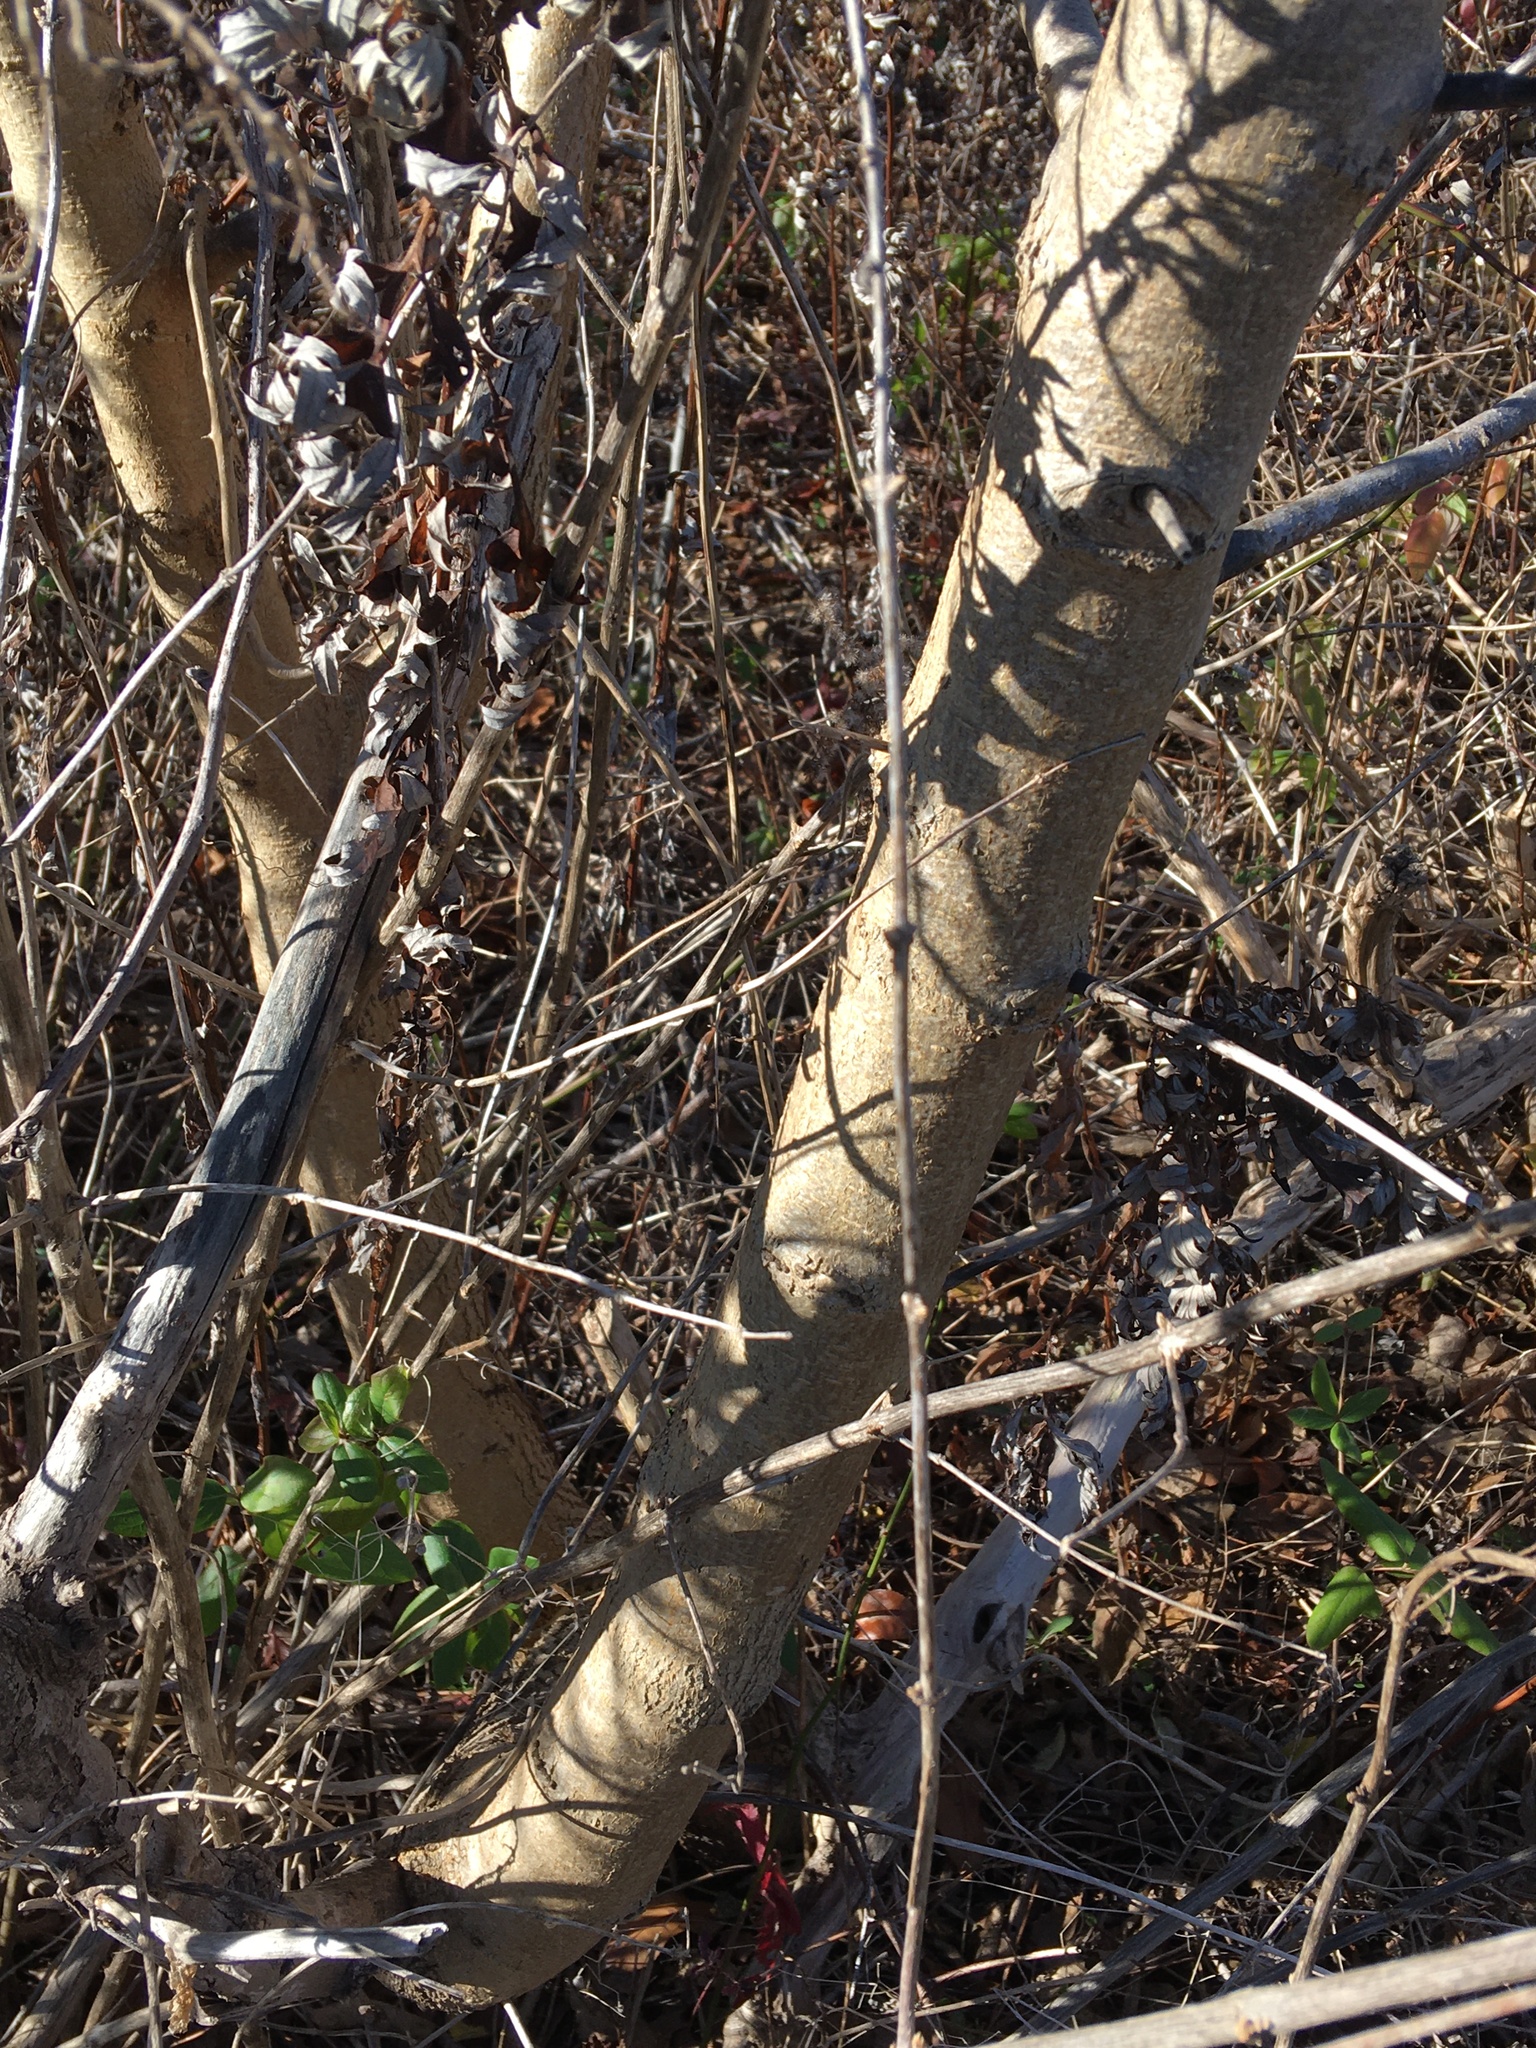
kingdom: Plantae
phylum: Tracheophyta
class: Magnoliopsida
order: Rosales
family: Moraceae
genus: Morus
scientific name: Morus alba
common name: White mulberry
